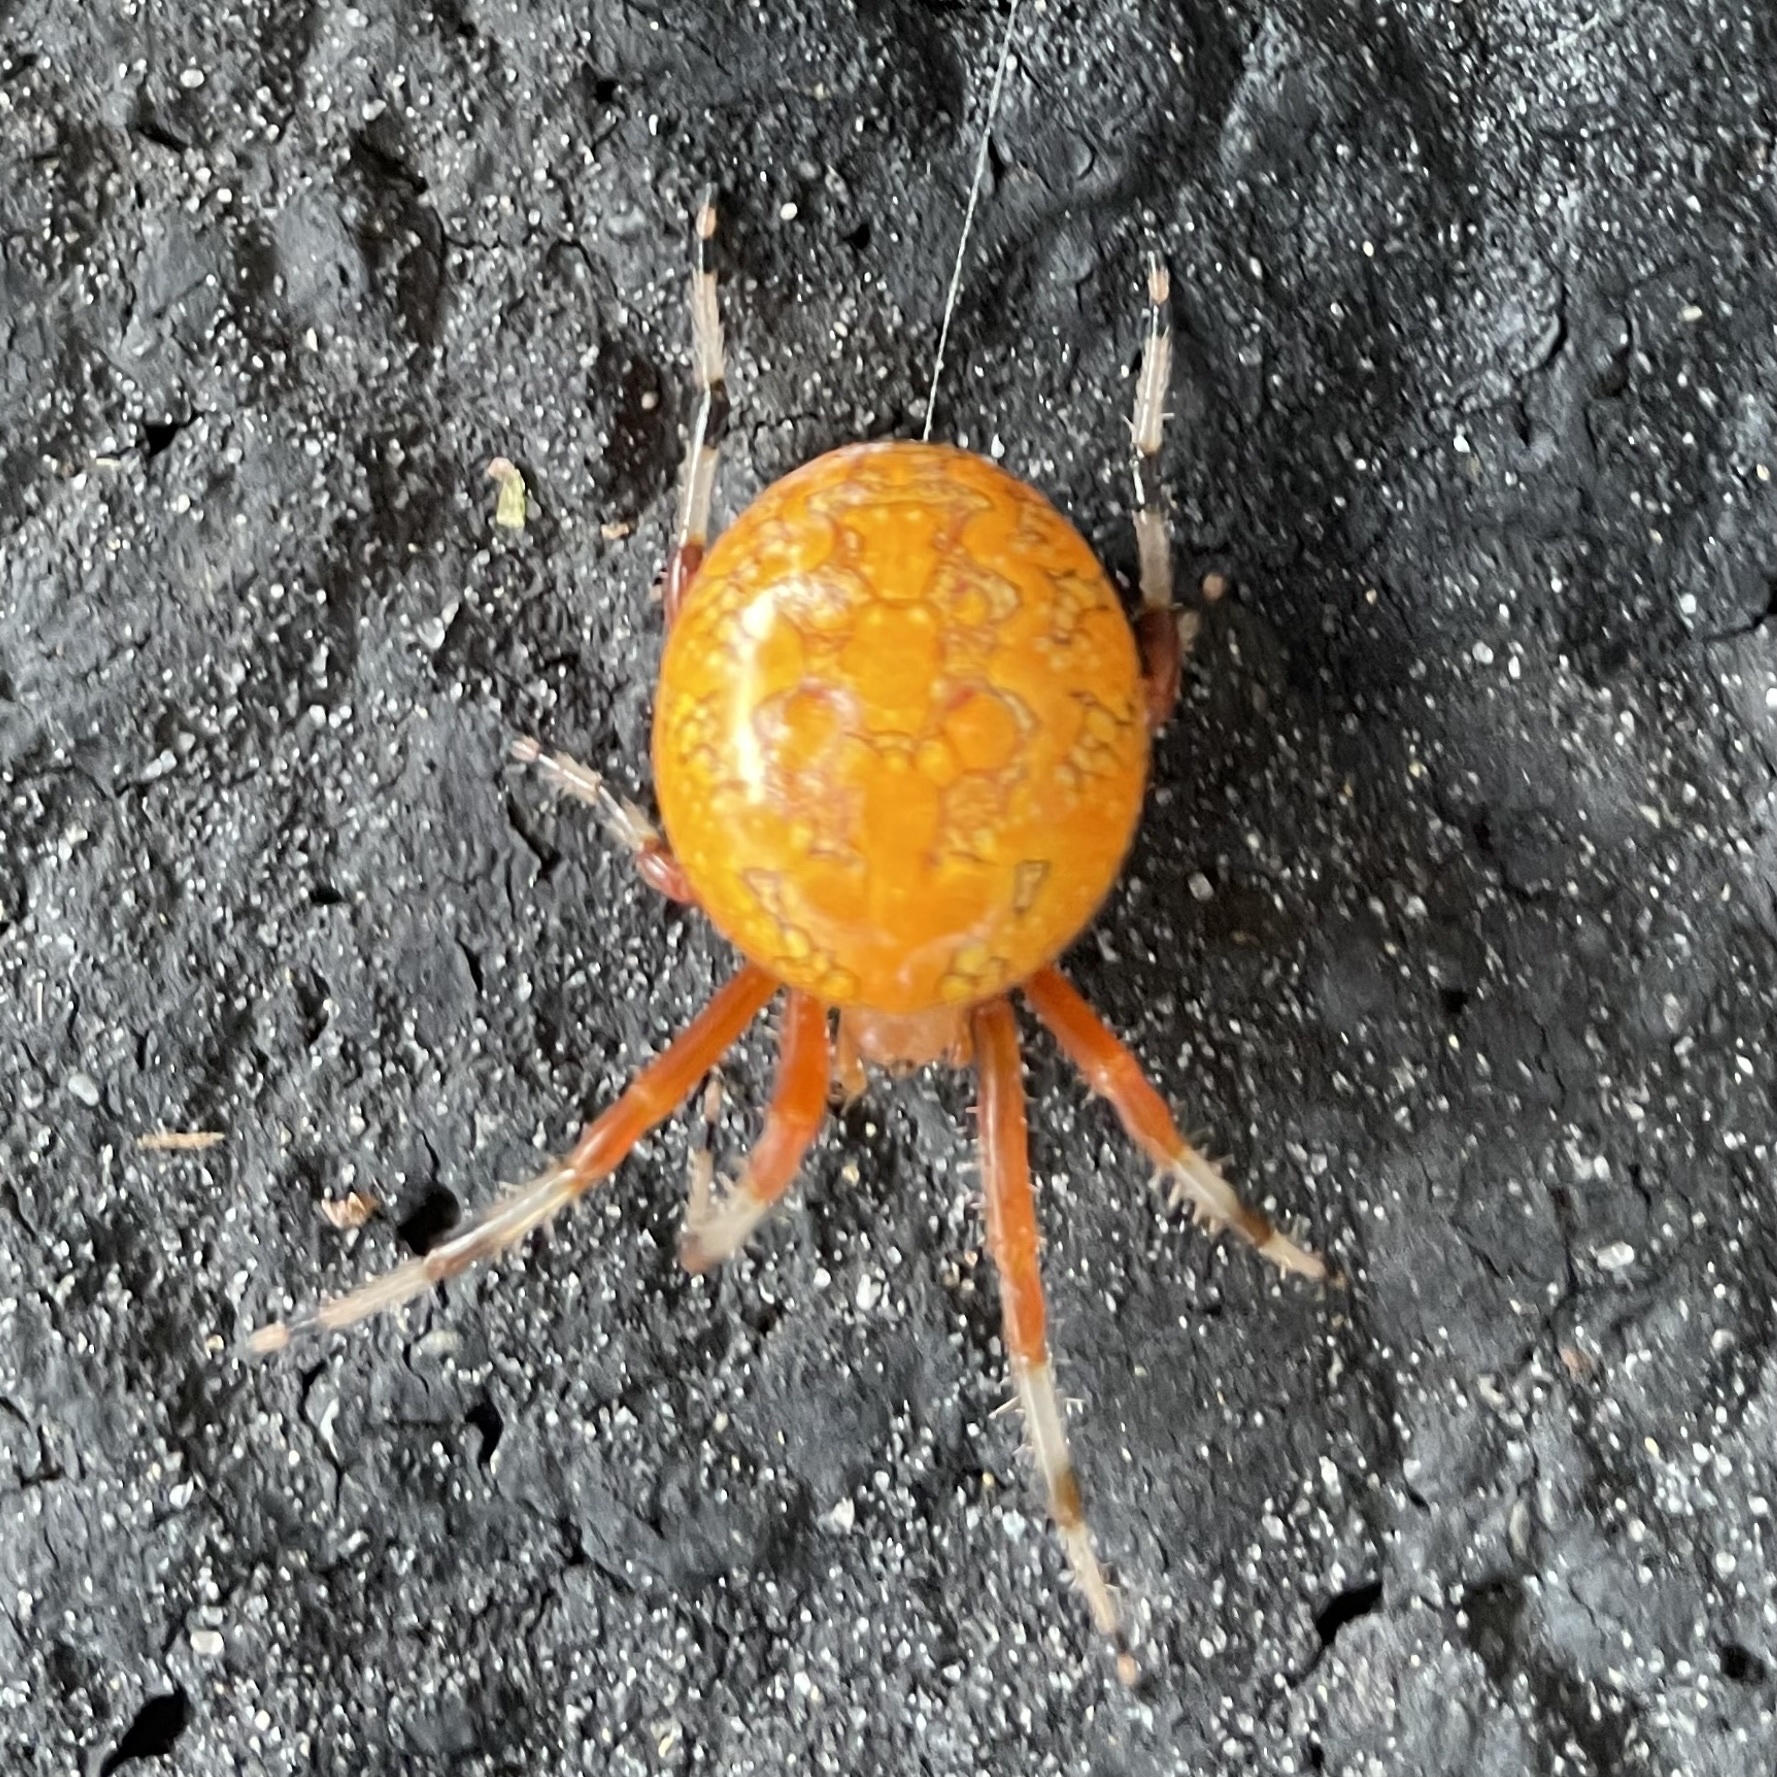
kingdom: Animalia
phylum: Arthropoda
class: Arachnida
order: Araneae
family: Araneidae
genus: Araneus
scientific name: Araneus marmoreus
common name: Marbled orbweaver
